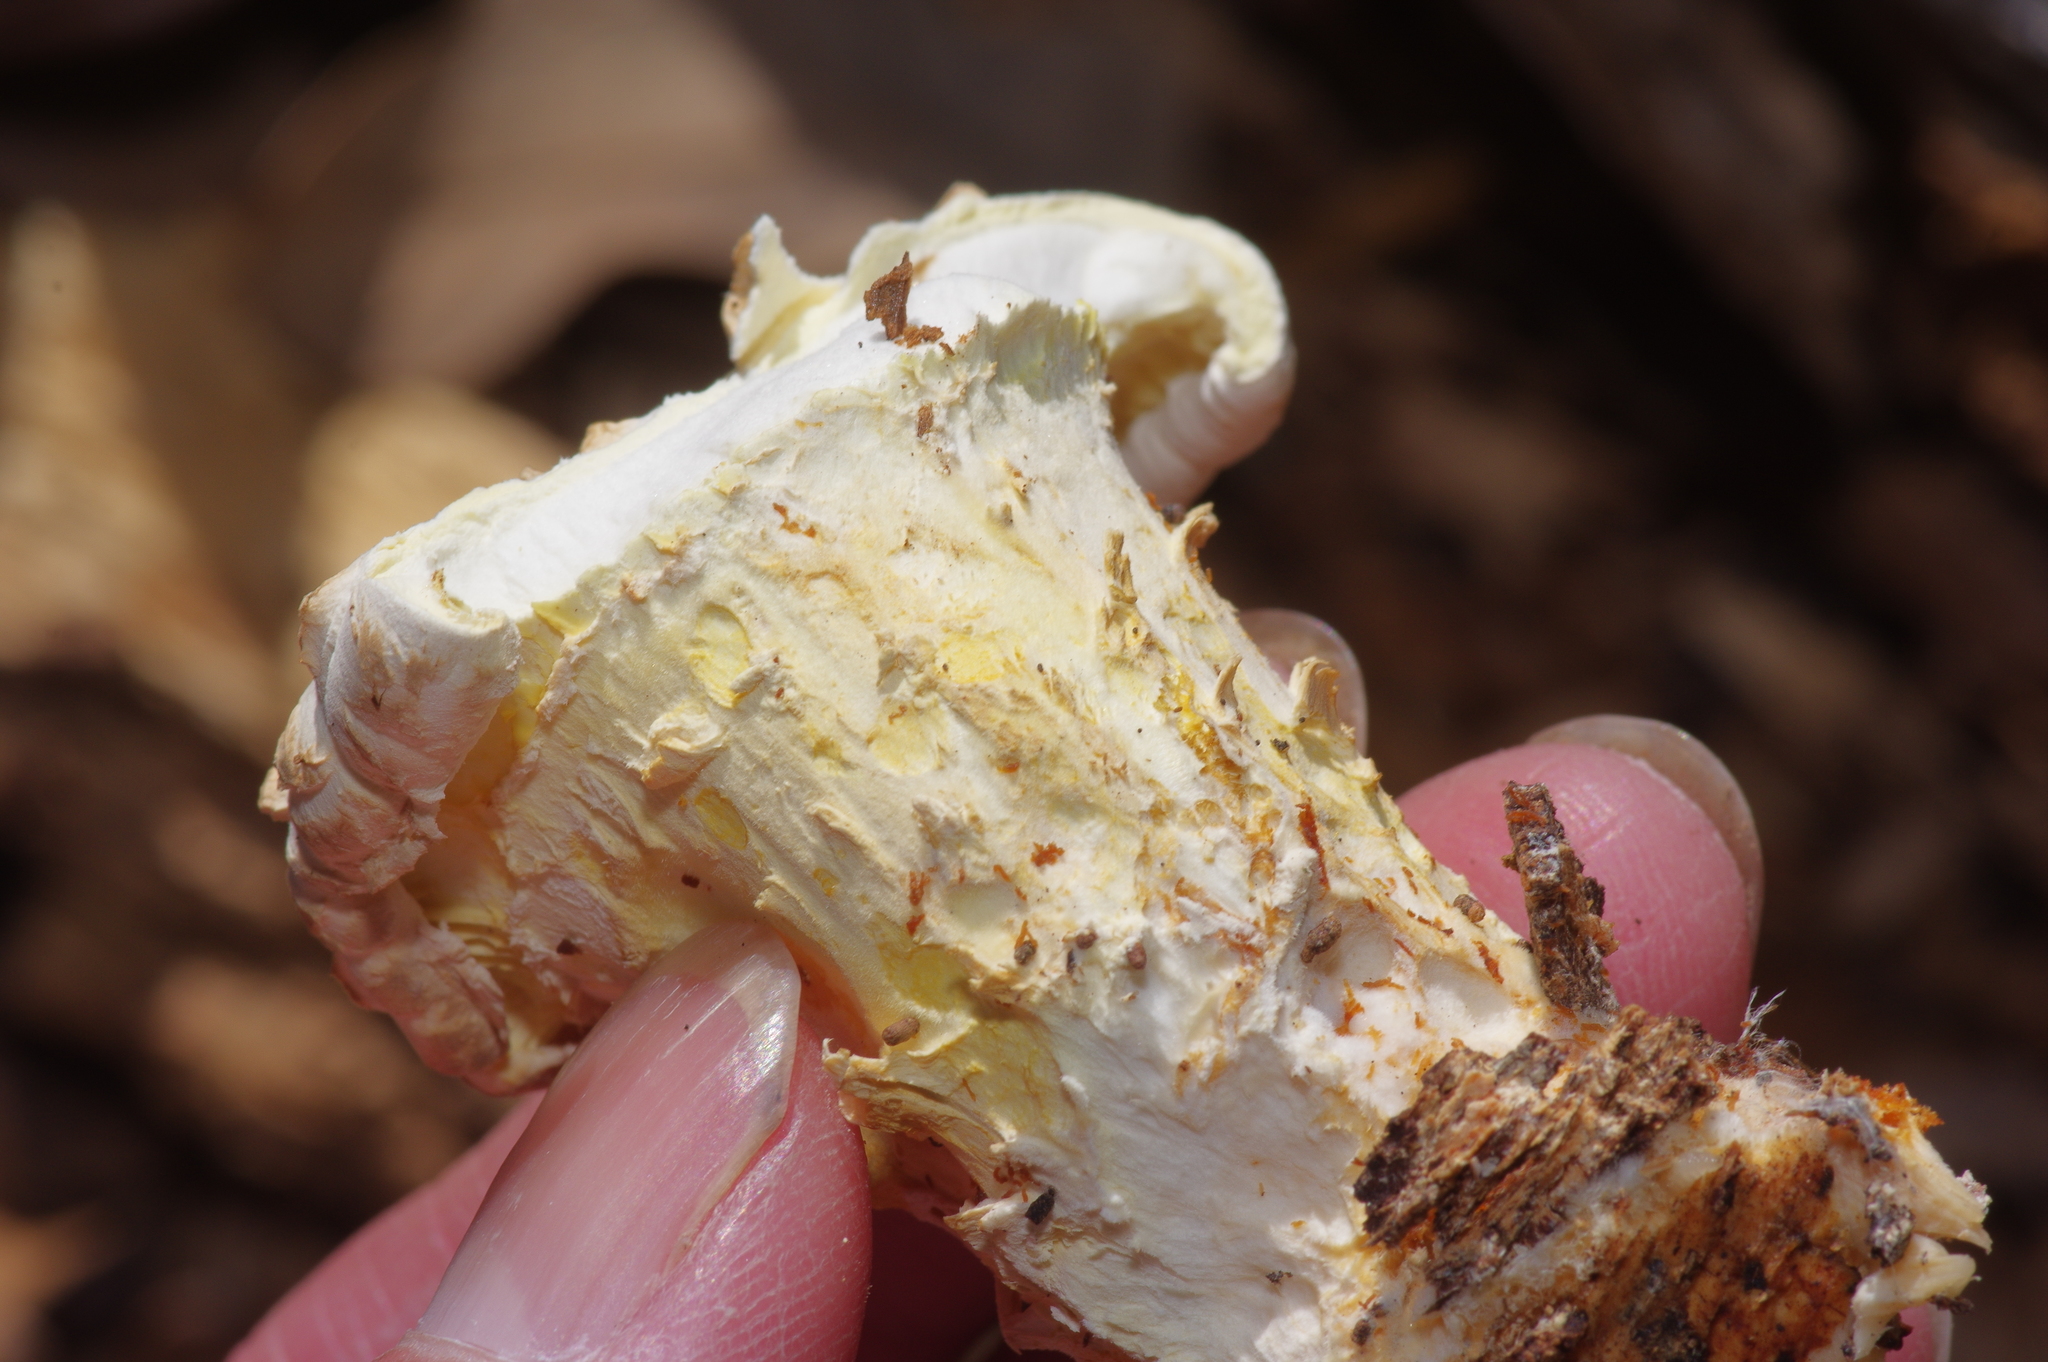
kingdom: Fungi
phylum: Basidiomycota
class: Agaricomycetes
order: Gloeophyllales
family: Gloeophyllaceae
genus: Neolentinus
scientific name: Neolentinus lepideus
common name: Scaly sawgill
